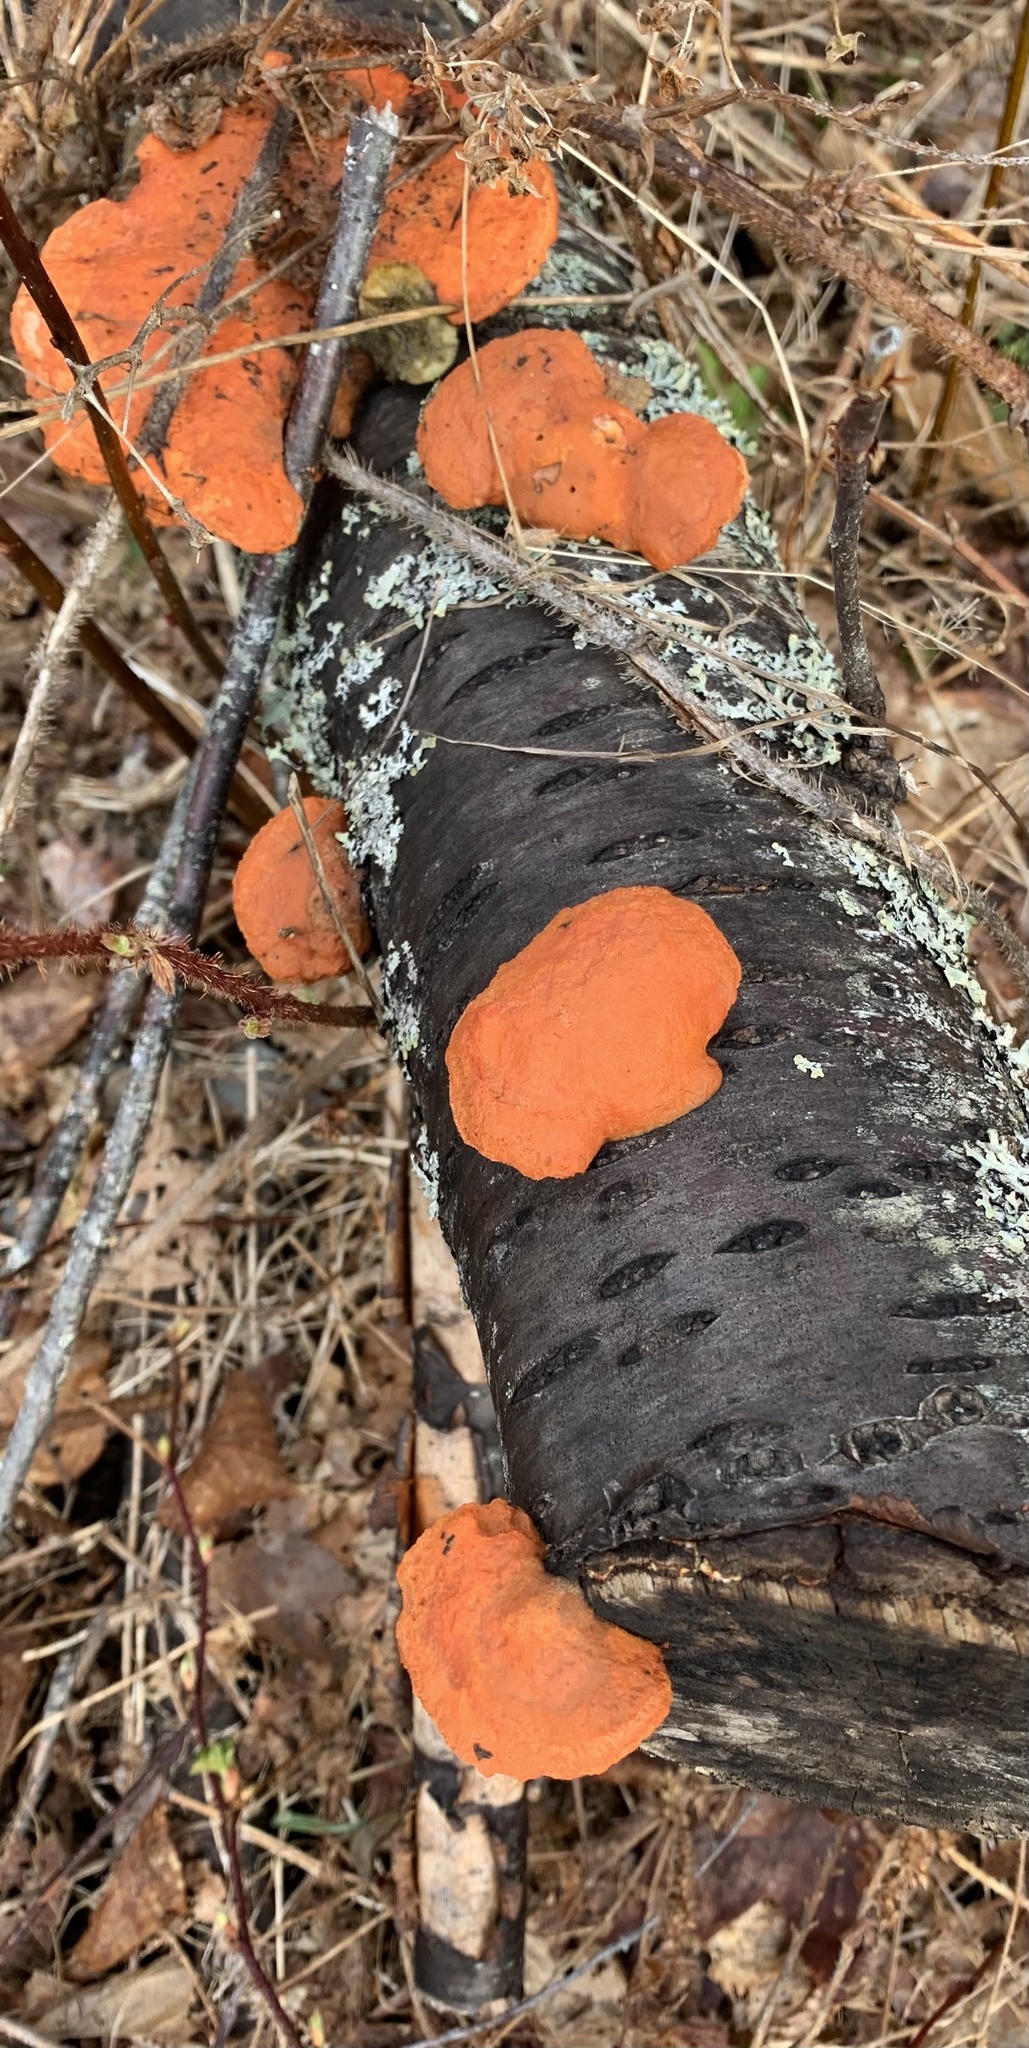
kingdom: Fungi
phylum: Basidiomycota
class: Agaricomycetes
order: Polyporales
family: Polyporaceae
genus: Trametes
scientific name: Trametes cinnabarina
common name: Northern cinnabar polypore
